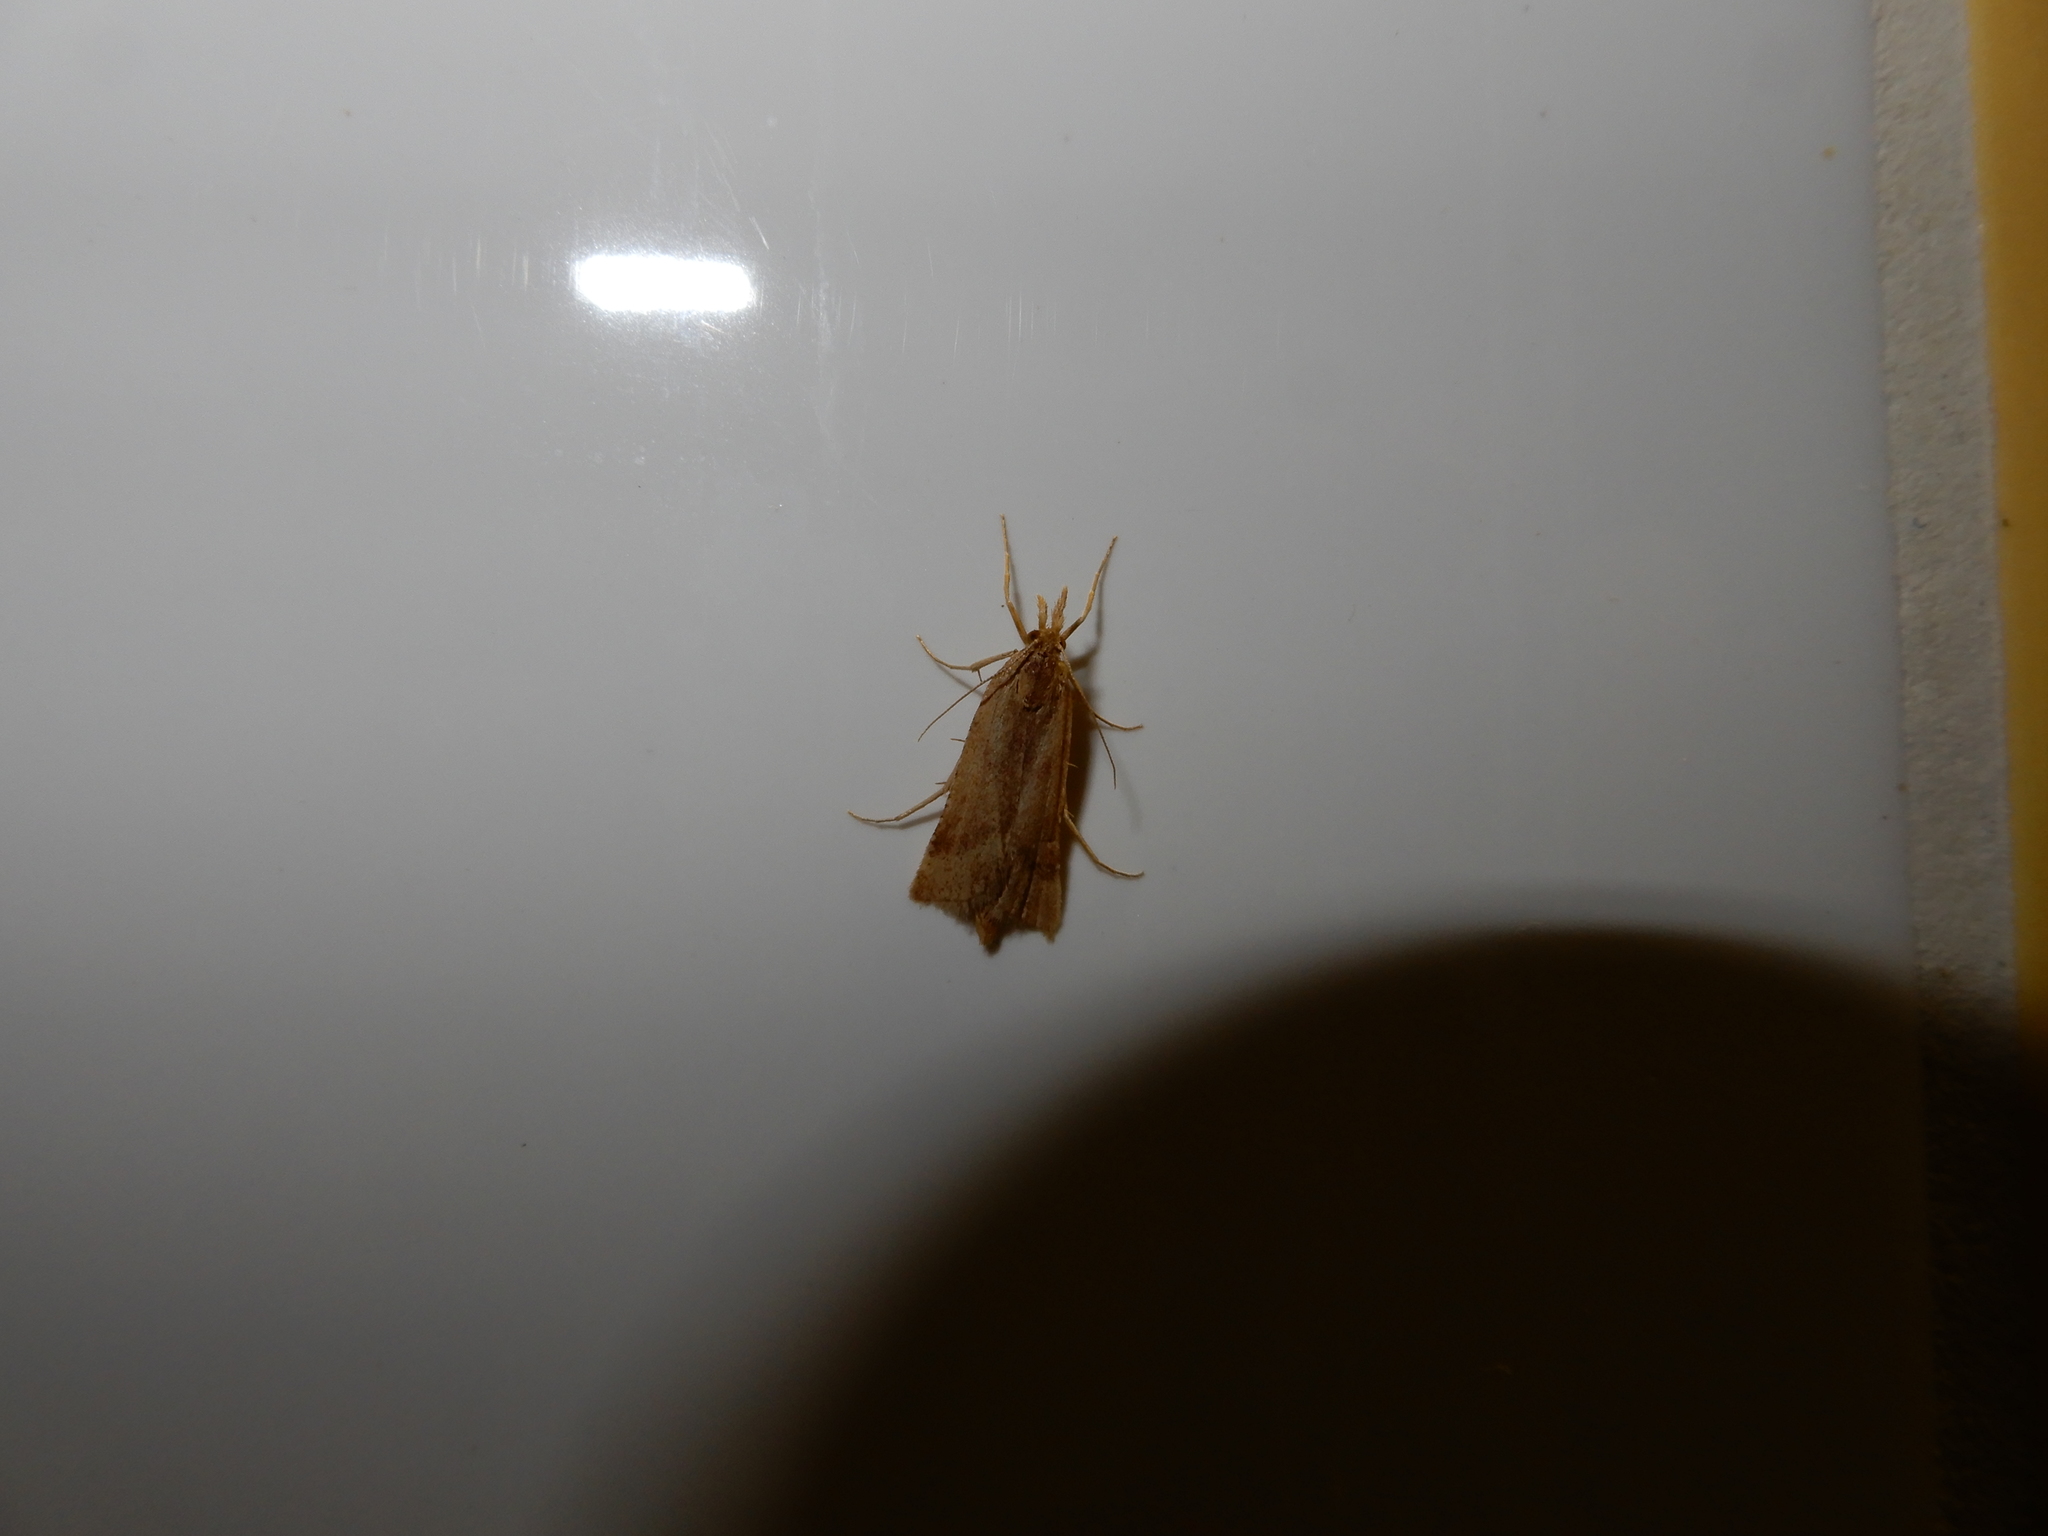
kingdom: Animalia
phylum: Arthropoda
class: Insecta
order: Lepidoptera
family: Pyralidae
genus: Synaphe
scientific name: Synaphe punctalis
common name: Long-legged tabby
